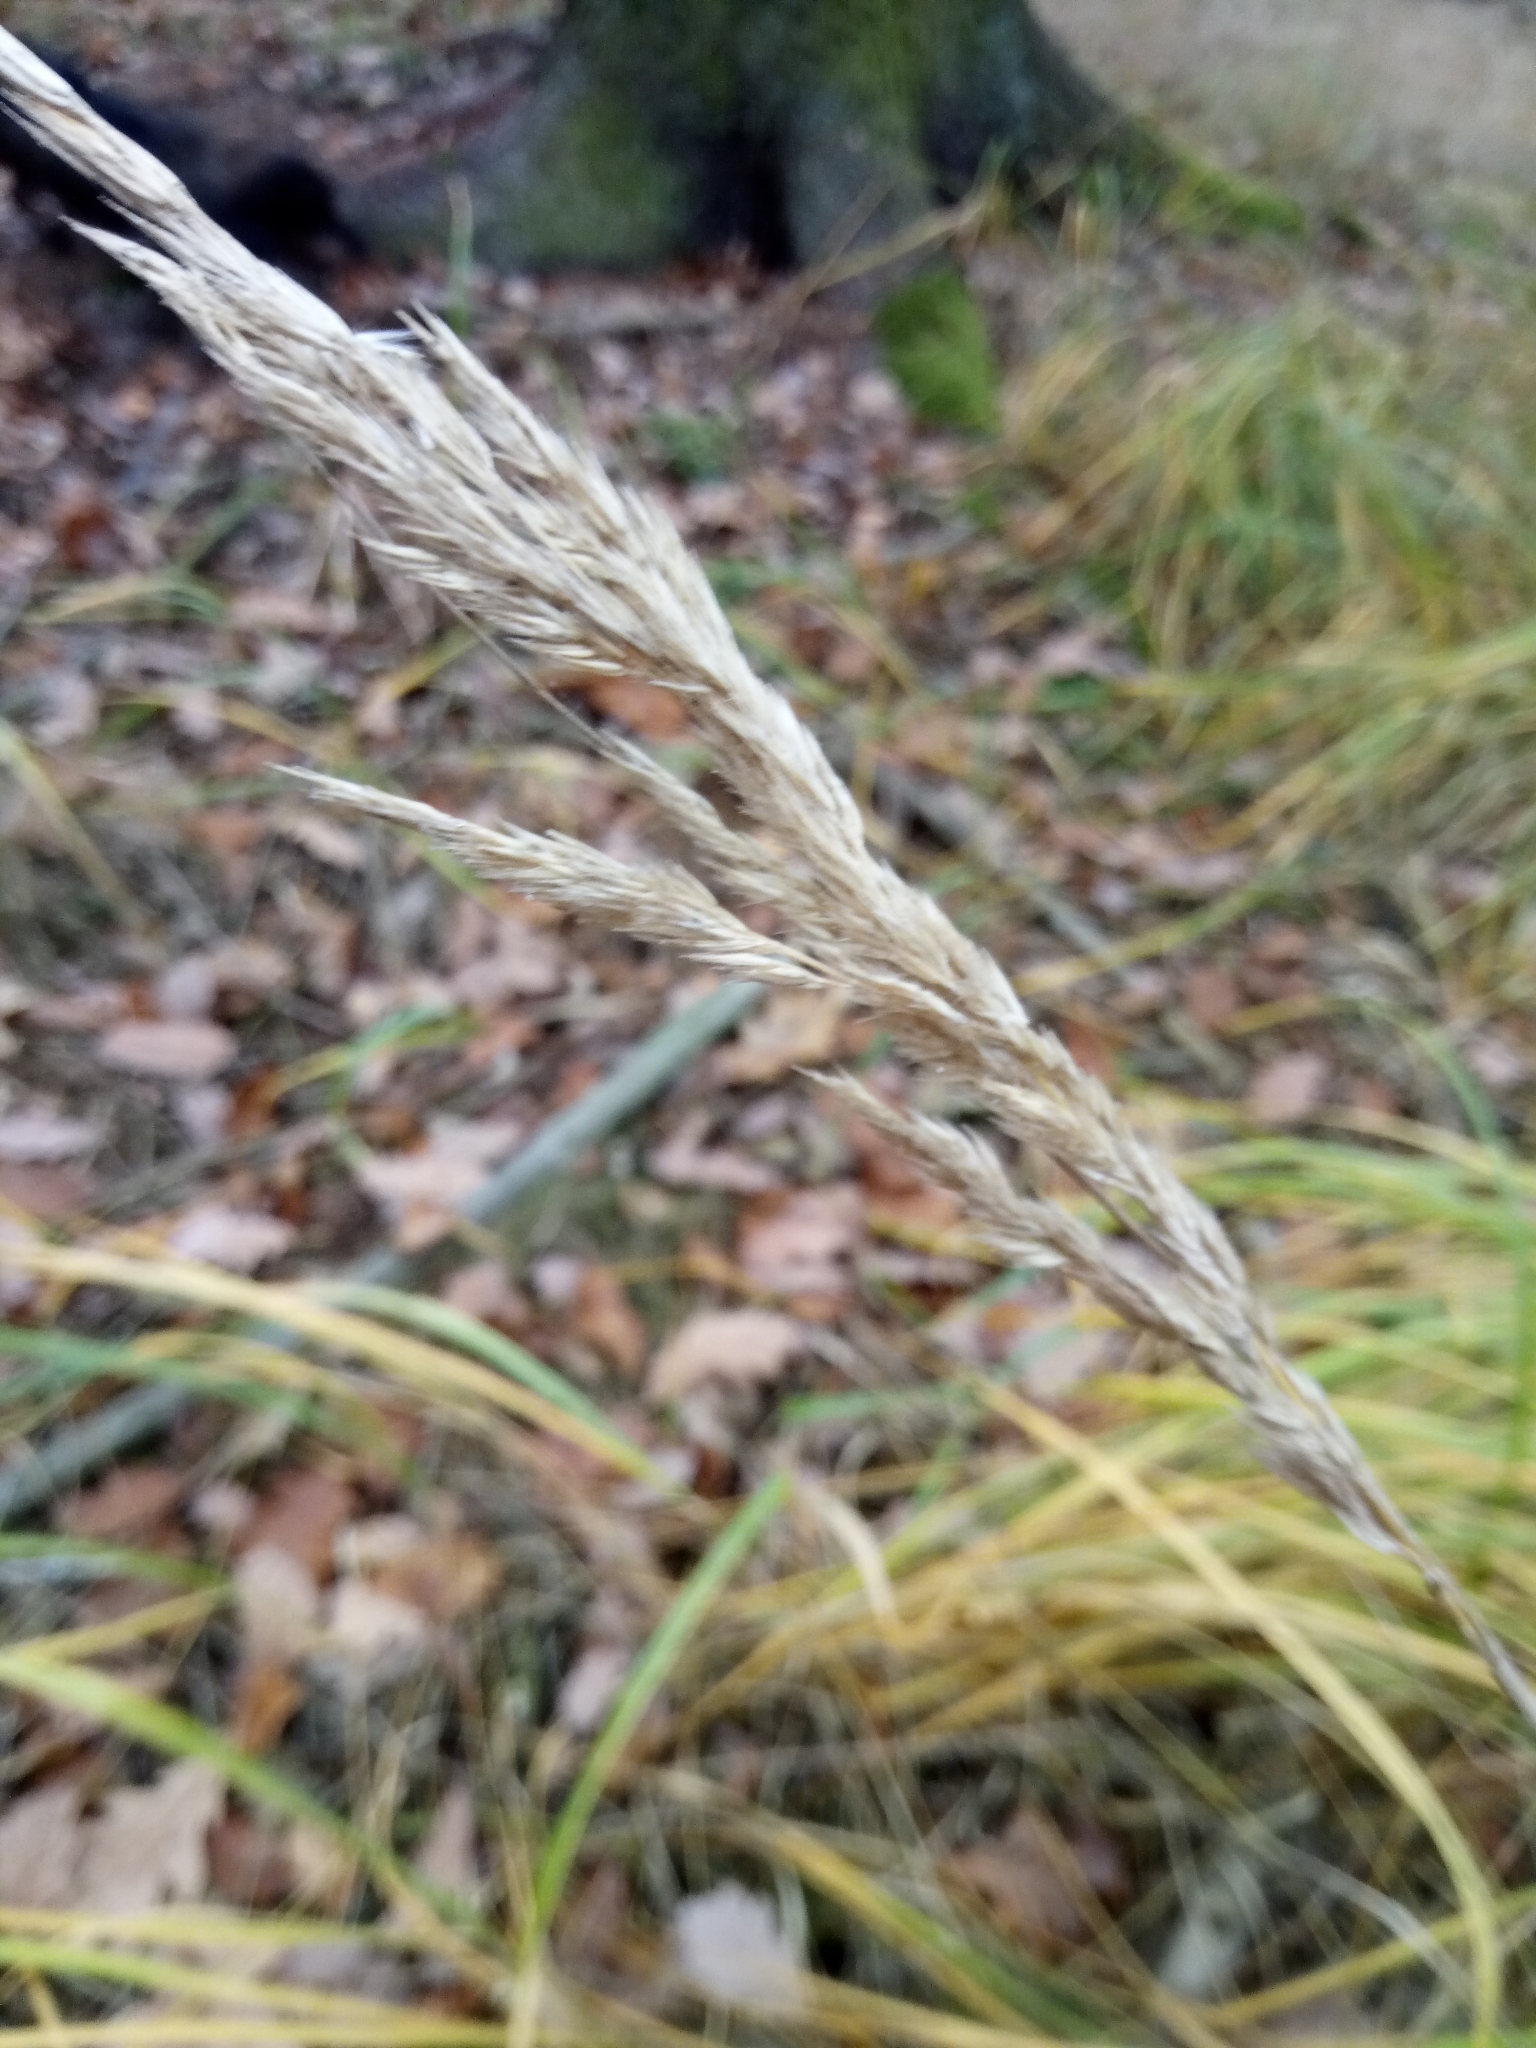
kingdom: Plantae
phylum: Tracheophyta
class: Liliopsida
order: Poales
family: Poaceae
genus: Calamagrostis
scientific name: Calamagrostis epigejos
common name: Wood small-reed
